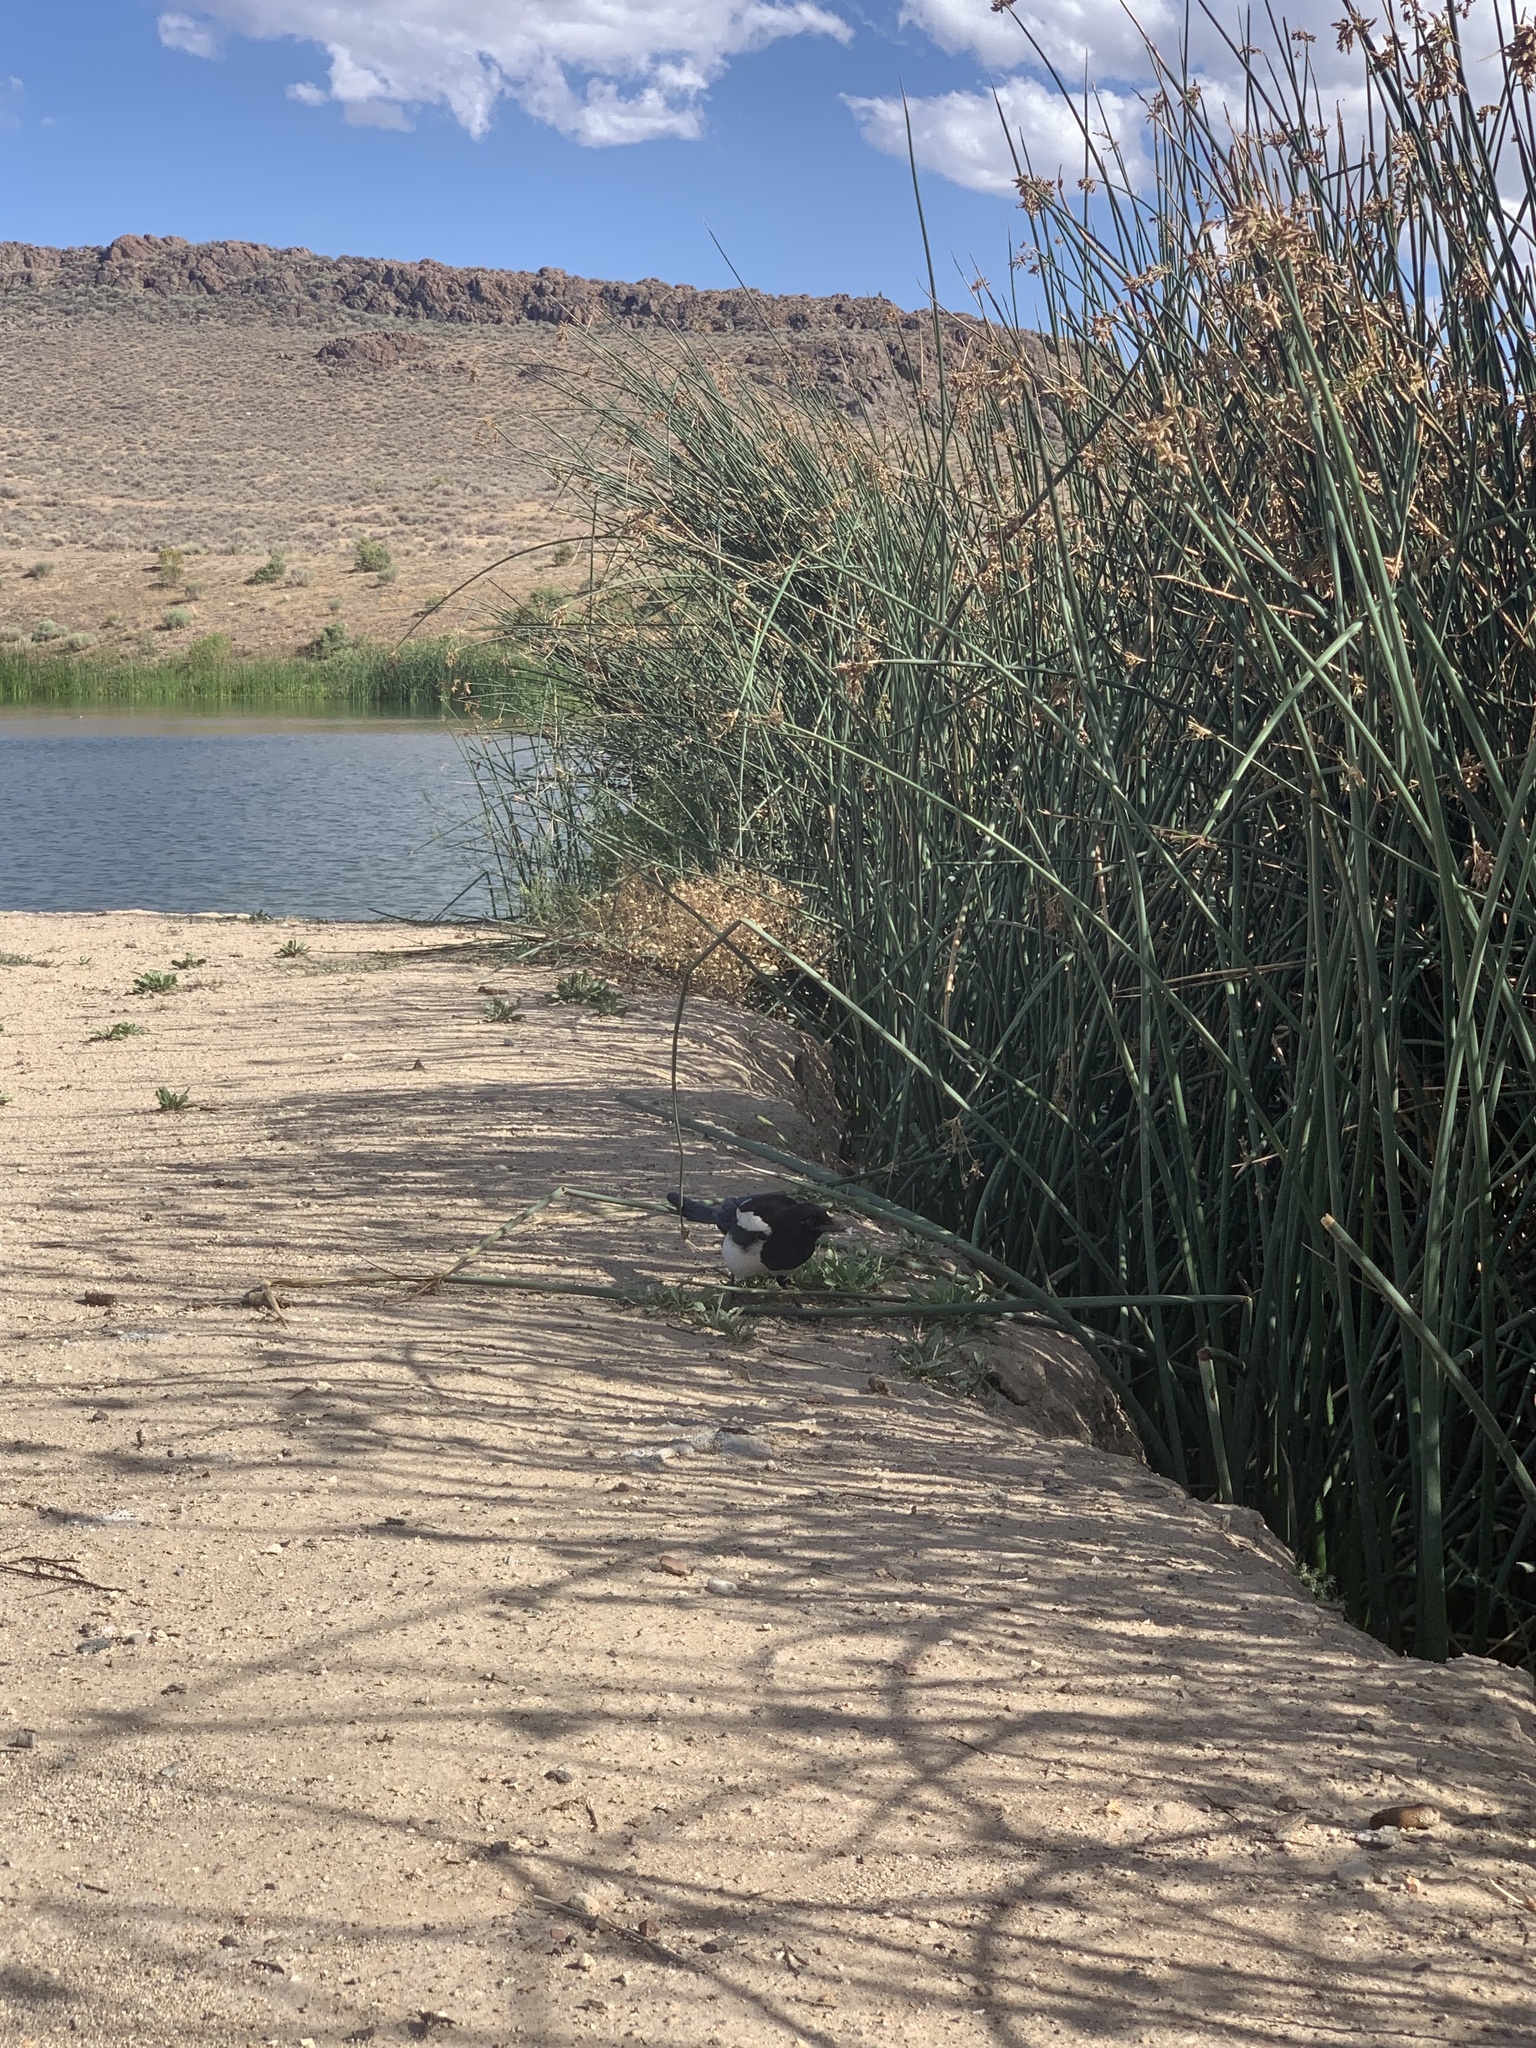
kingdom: Animalia
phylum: Chordata
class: Aves
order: Passeriformes
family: Corvidae
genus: Pica
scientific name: Pica hudsonia
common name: Black-billed magpie
